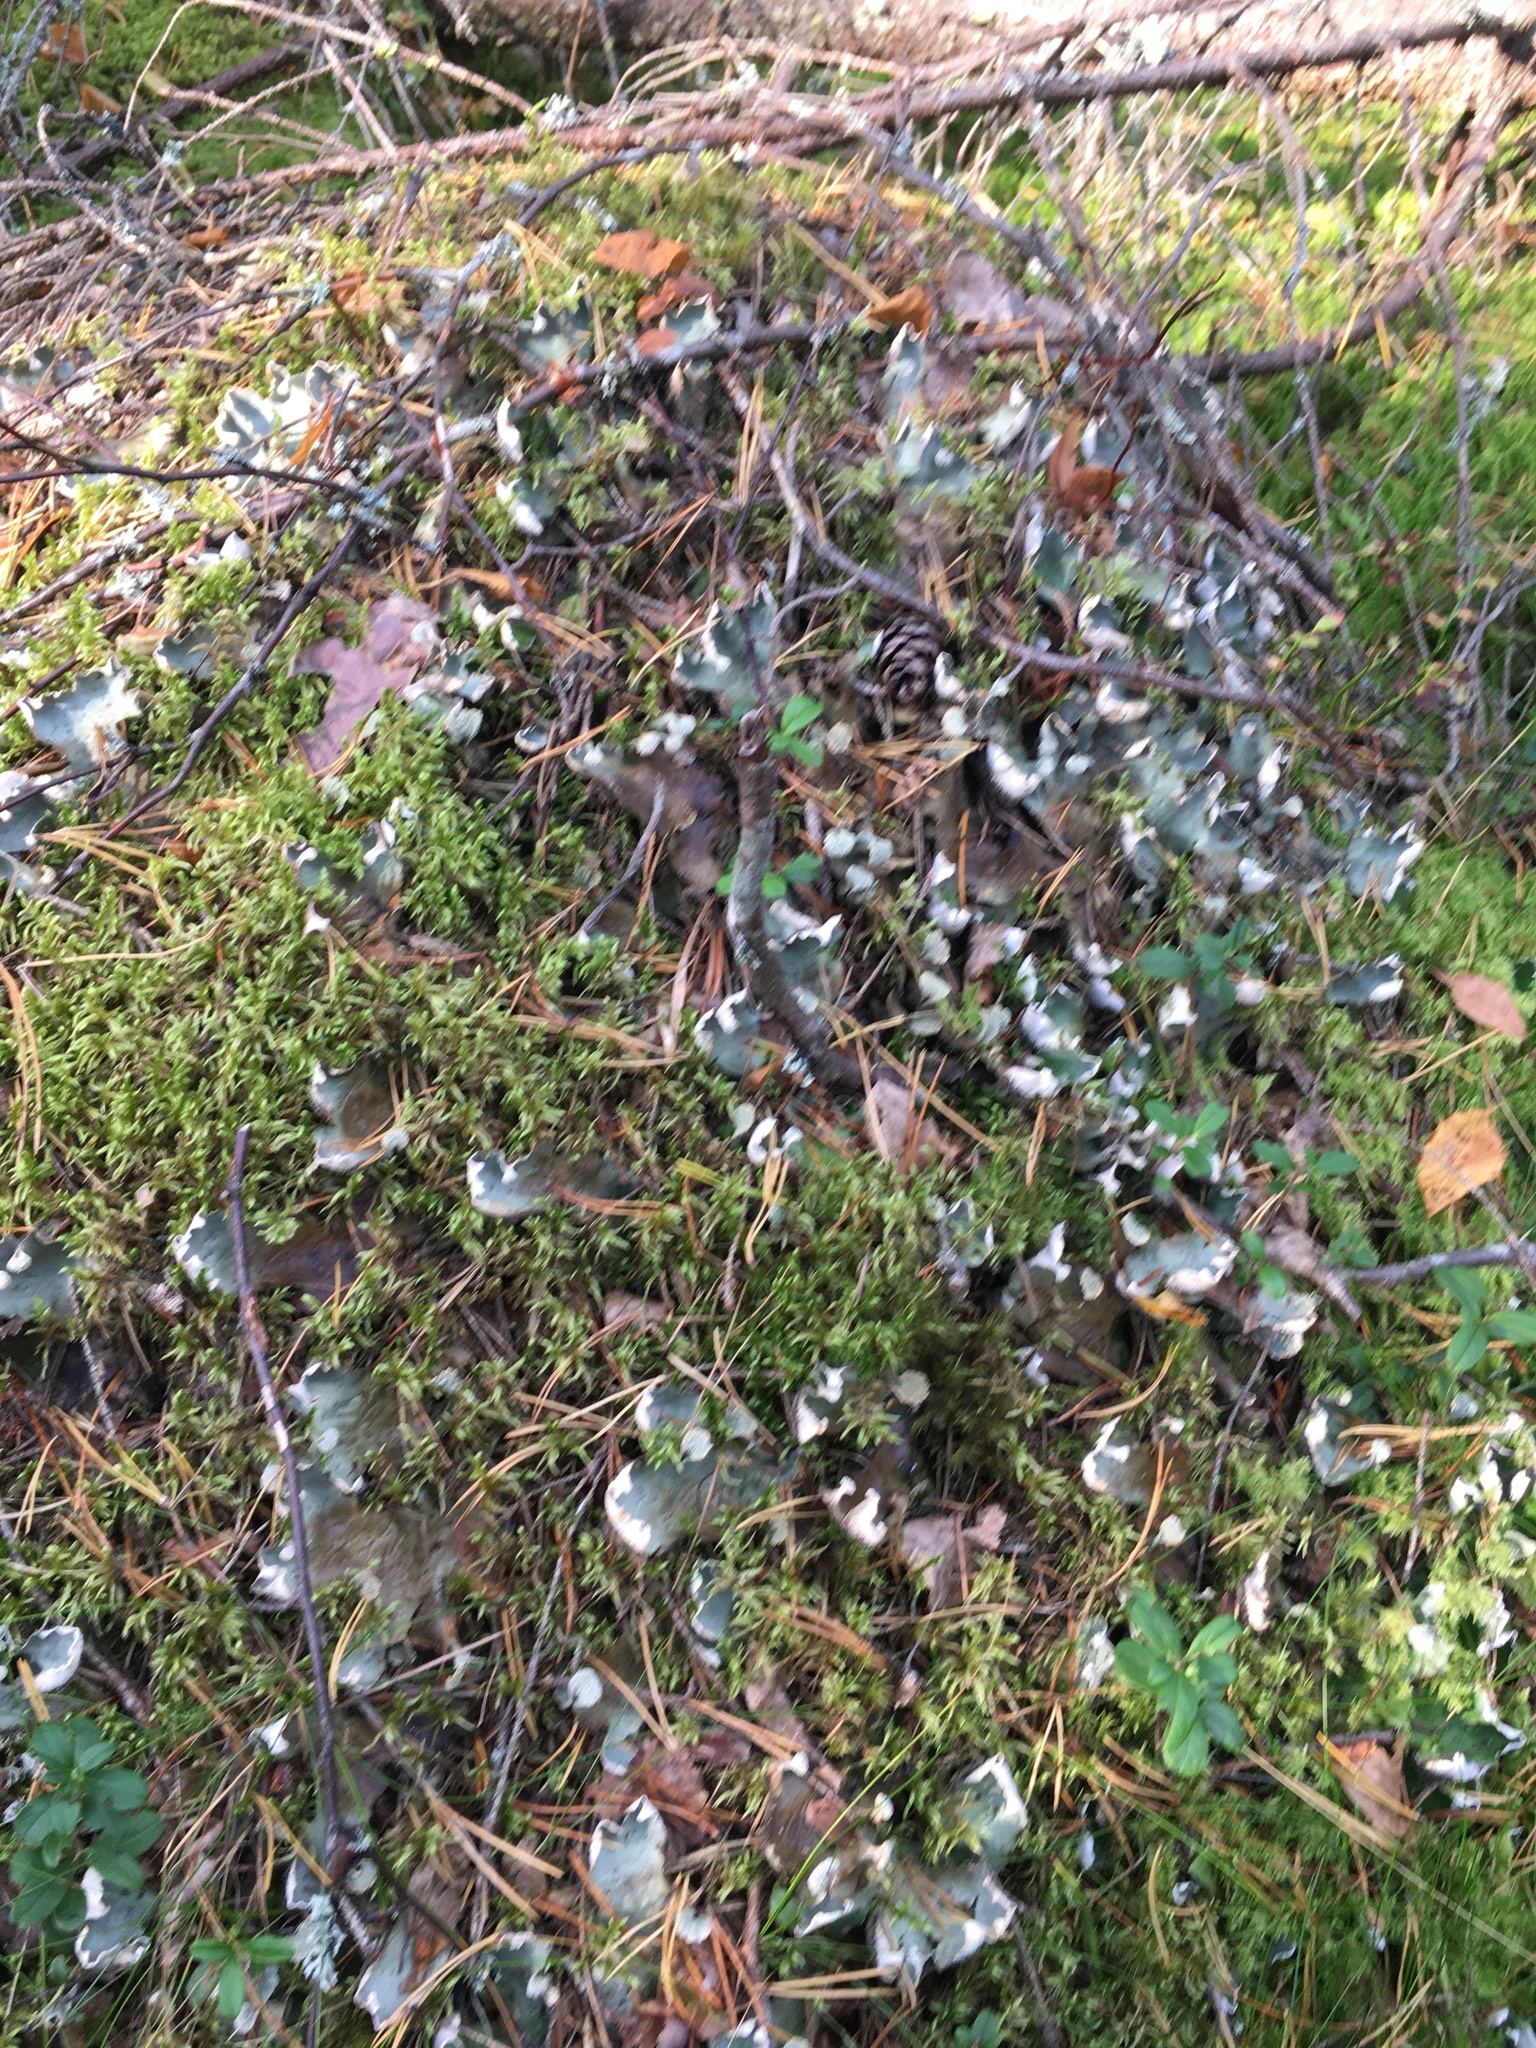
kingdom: Fungi
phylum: Ascomycota
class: Lecanoromycetes
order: Peltigerales
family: Peltigeraceae
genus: Peltigera
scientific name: Peltigera aphthosa
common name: Common freckle pelt lichen
